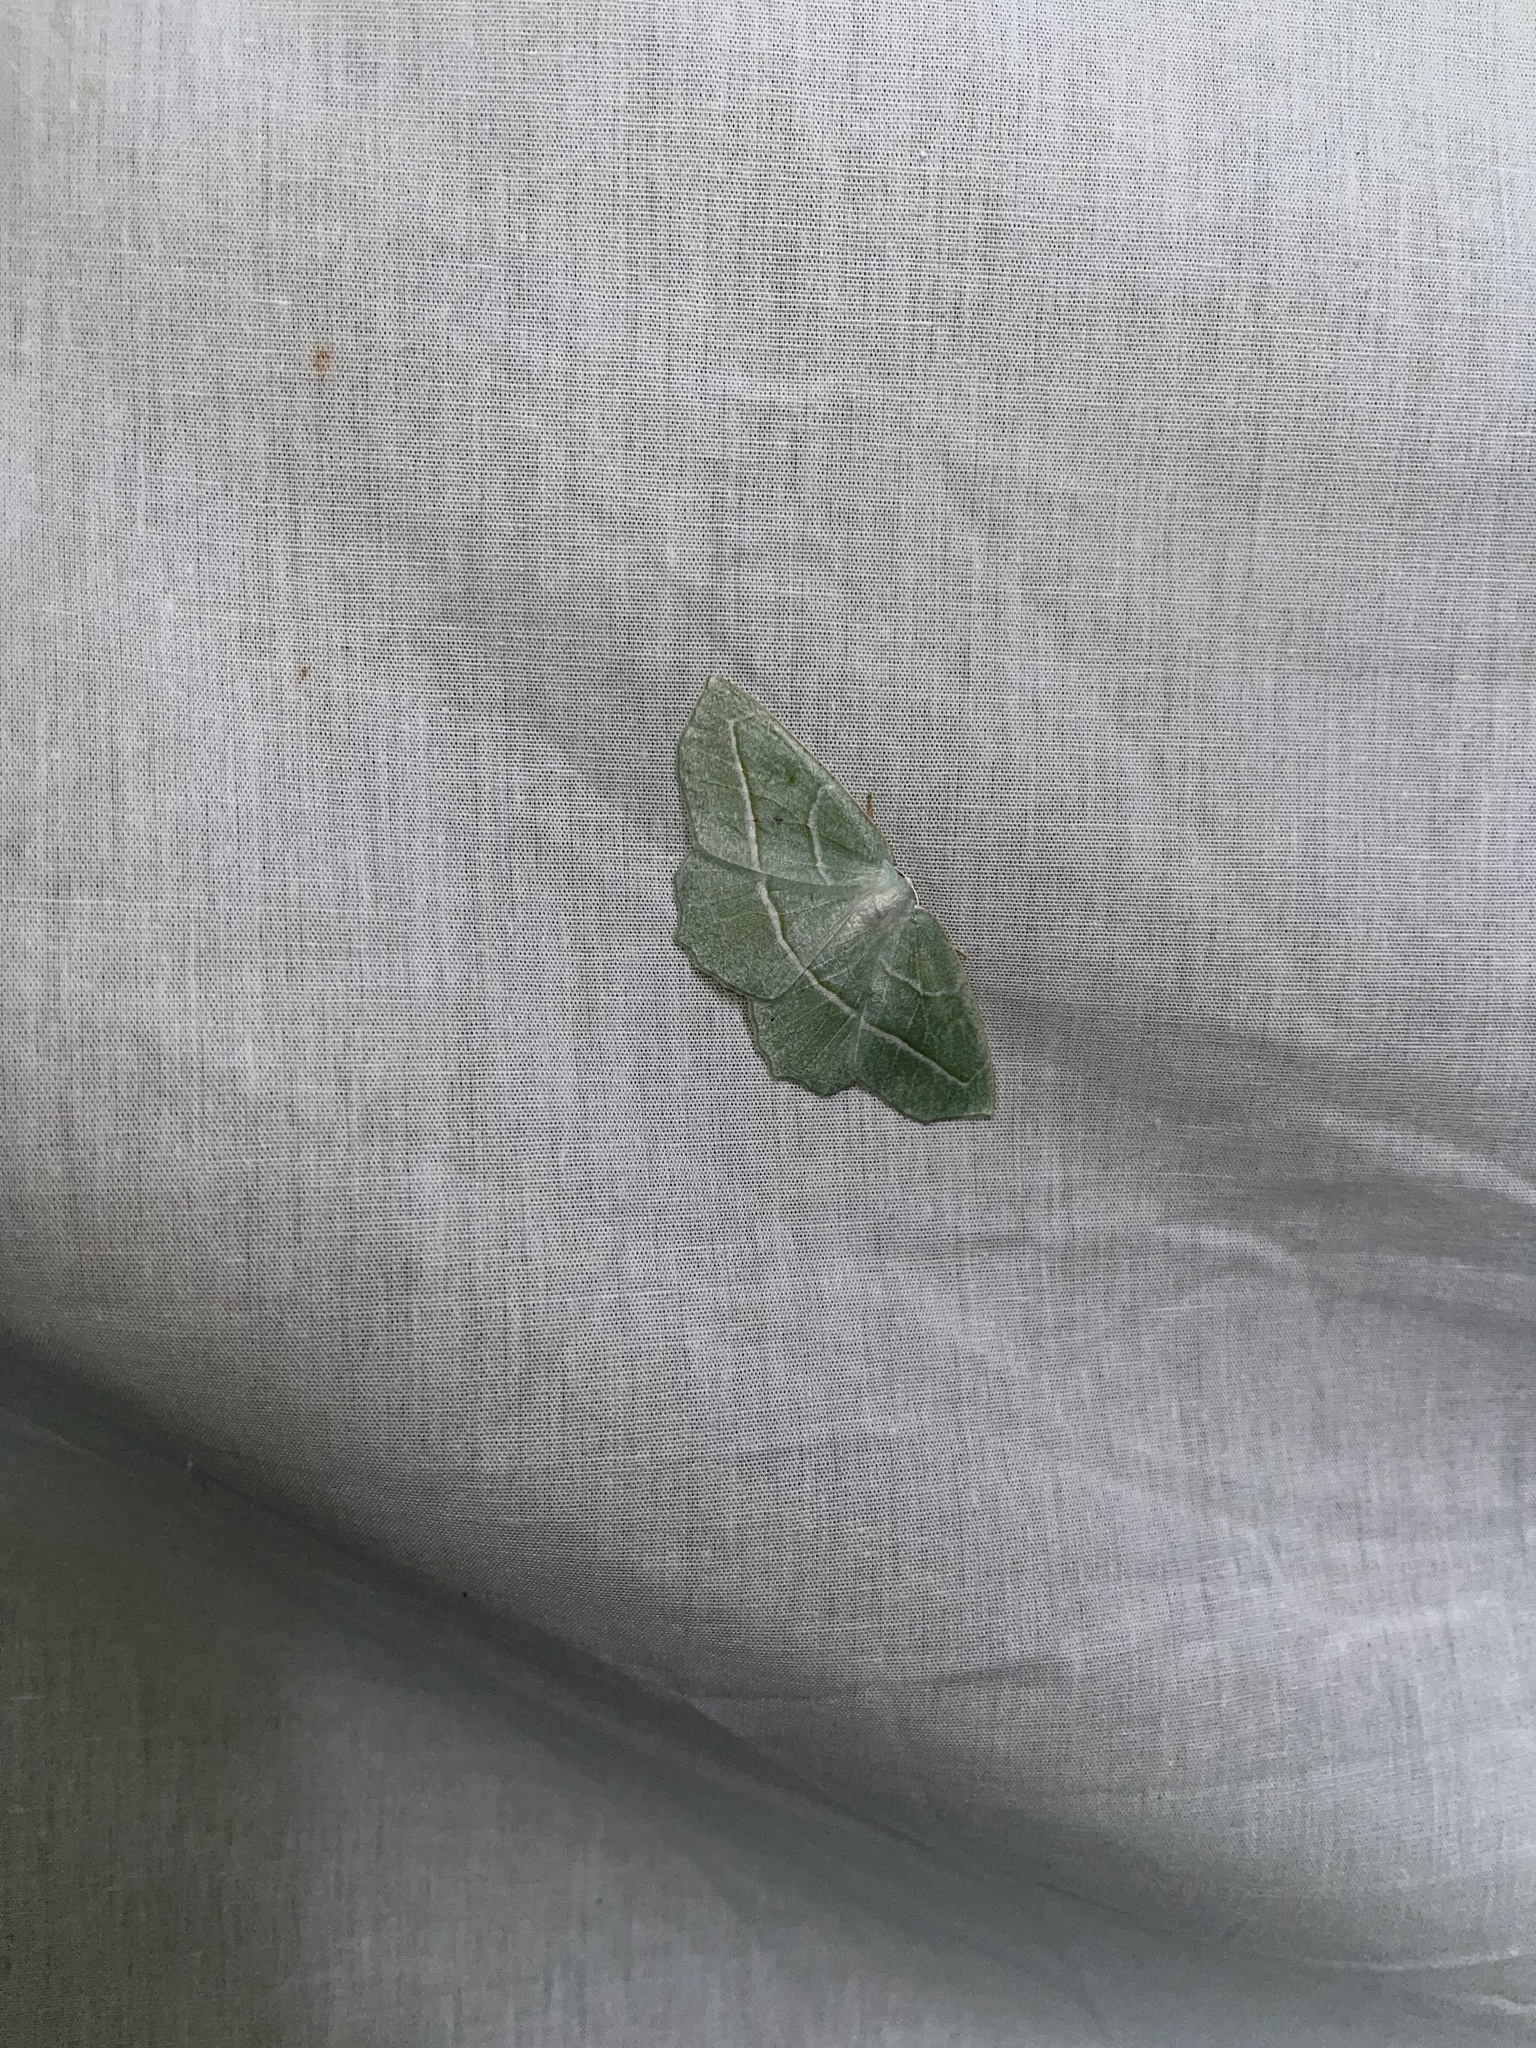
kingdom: Animalia
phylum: Arthropoda
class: Insecta
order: Lepidoptera
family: Geometridae
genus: Campaea
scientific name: Campaea perlata
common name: Fringed looper
